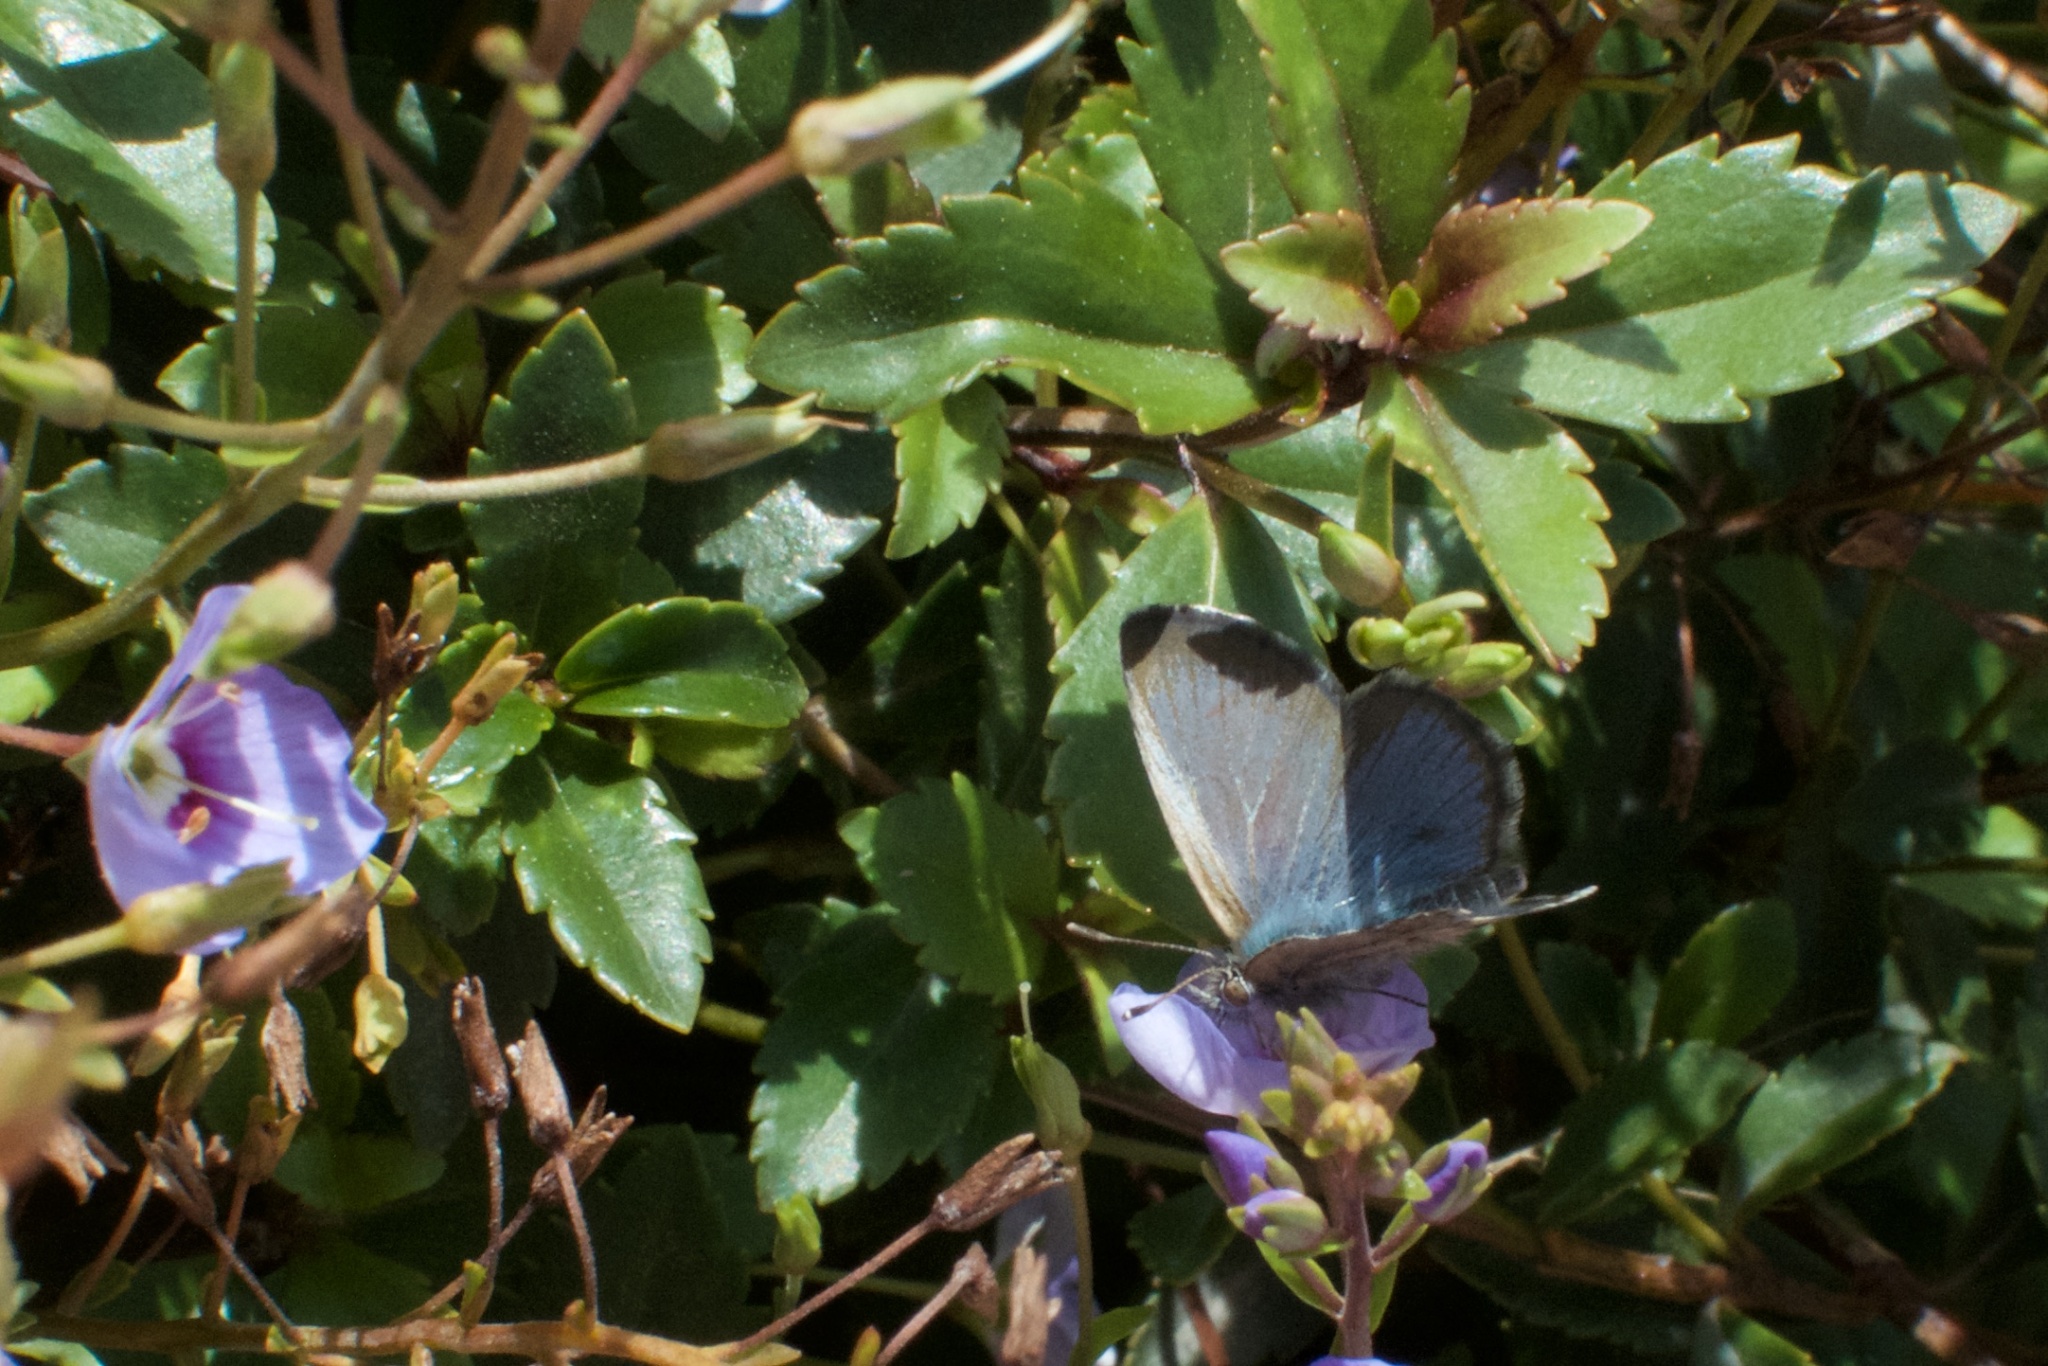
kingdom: Animalia
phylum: Arthropoda
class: Insecta
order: Lepidoptera
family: Lycaenidae
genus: Zizina
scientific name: Zizina oxleyi
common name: Southern blue
